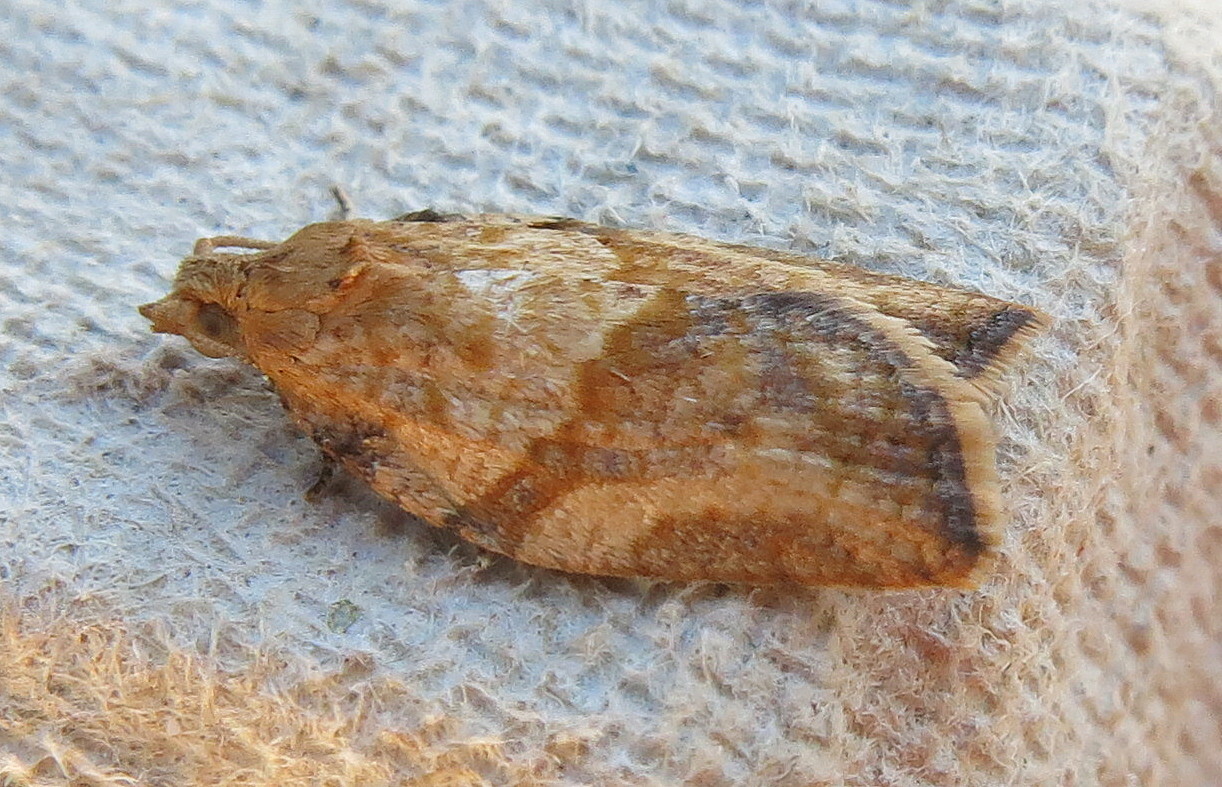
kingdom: Animalia
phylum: Arthropoda
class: Insecta
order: Lepidoptera
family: Tortricidae
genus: Epiphyas
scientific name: Epiphyas postvittana
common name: Light brown apple moth
